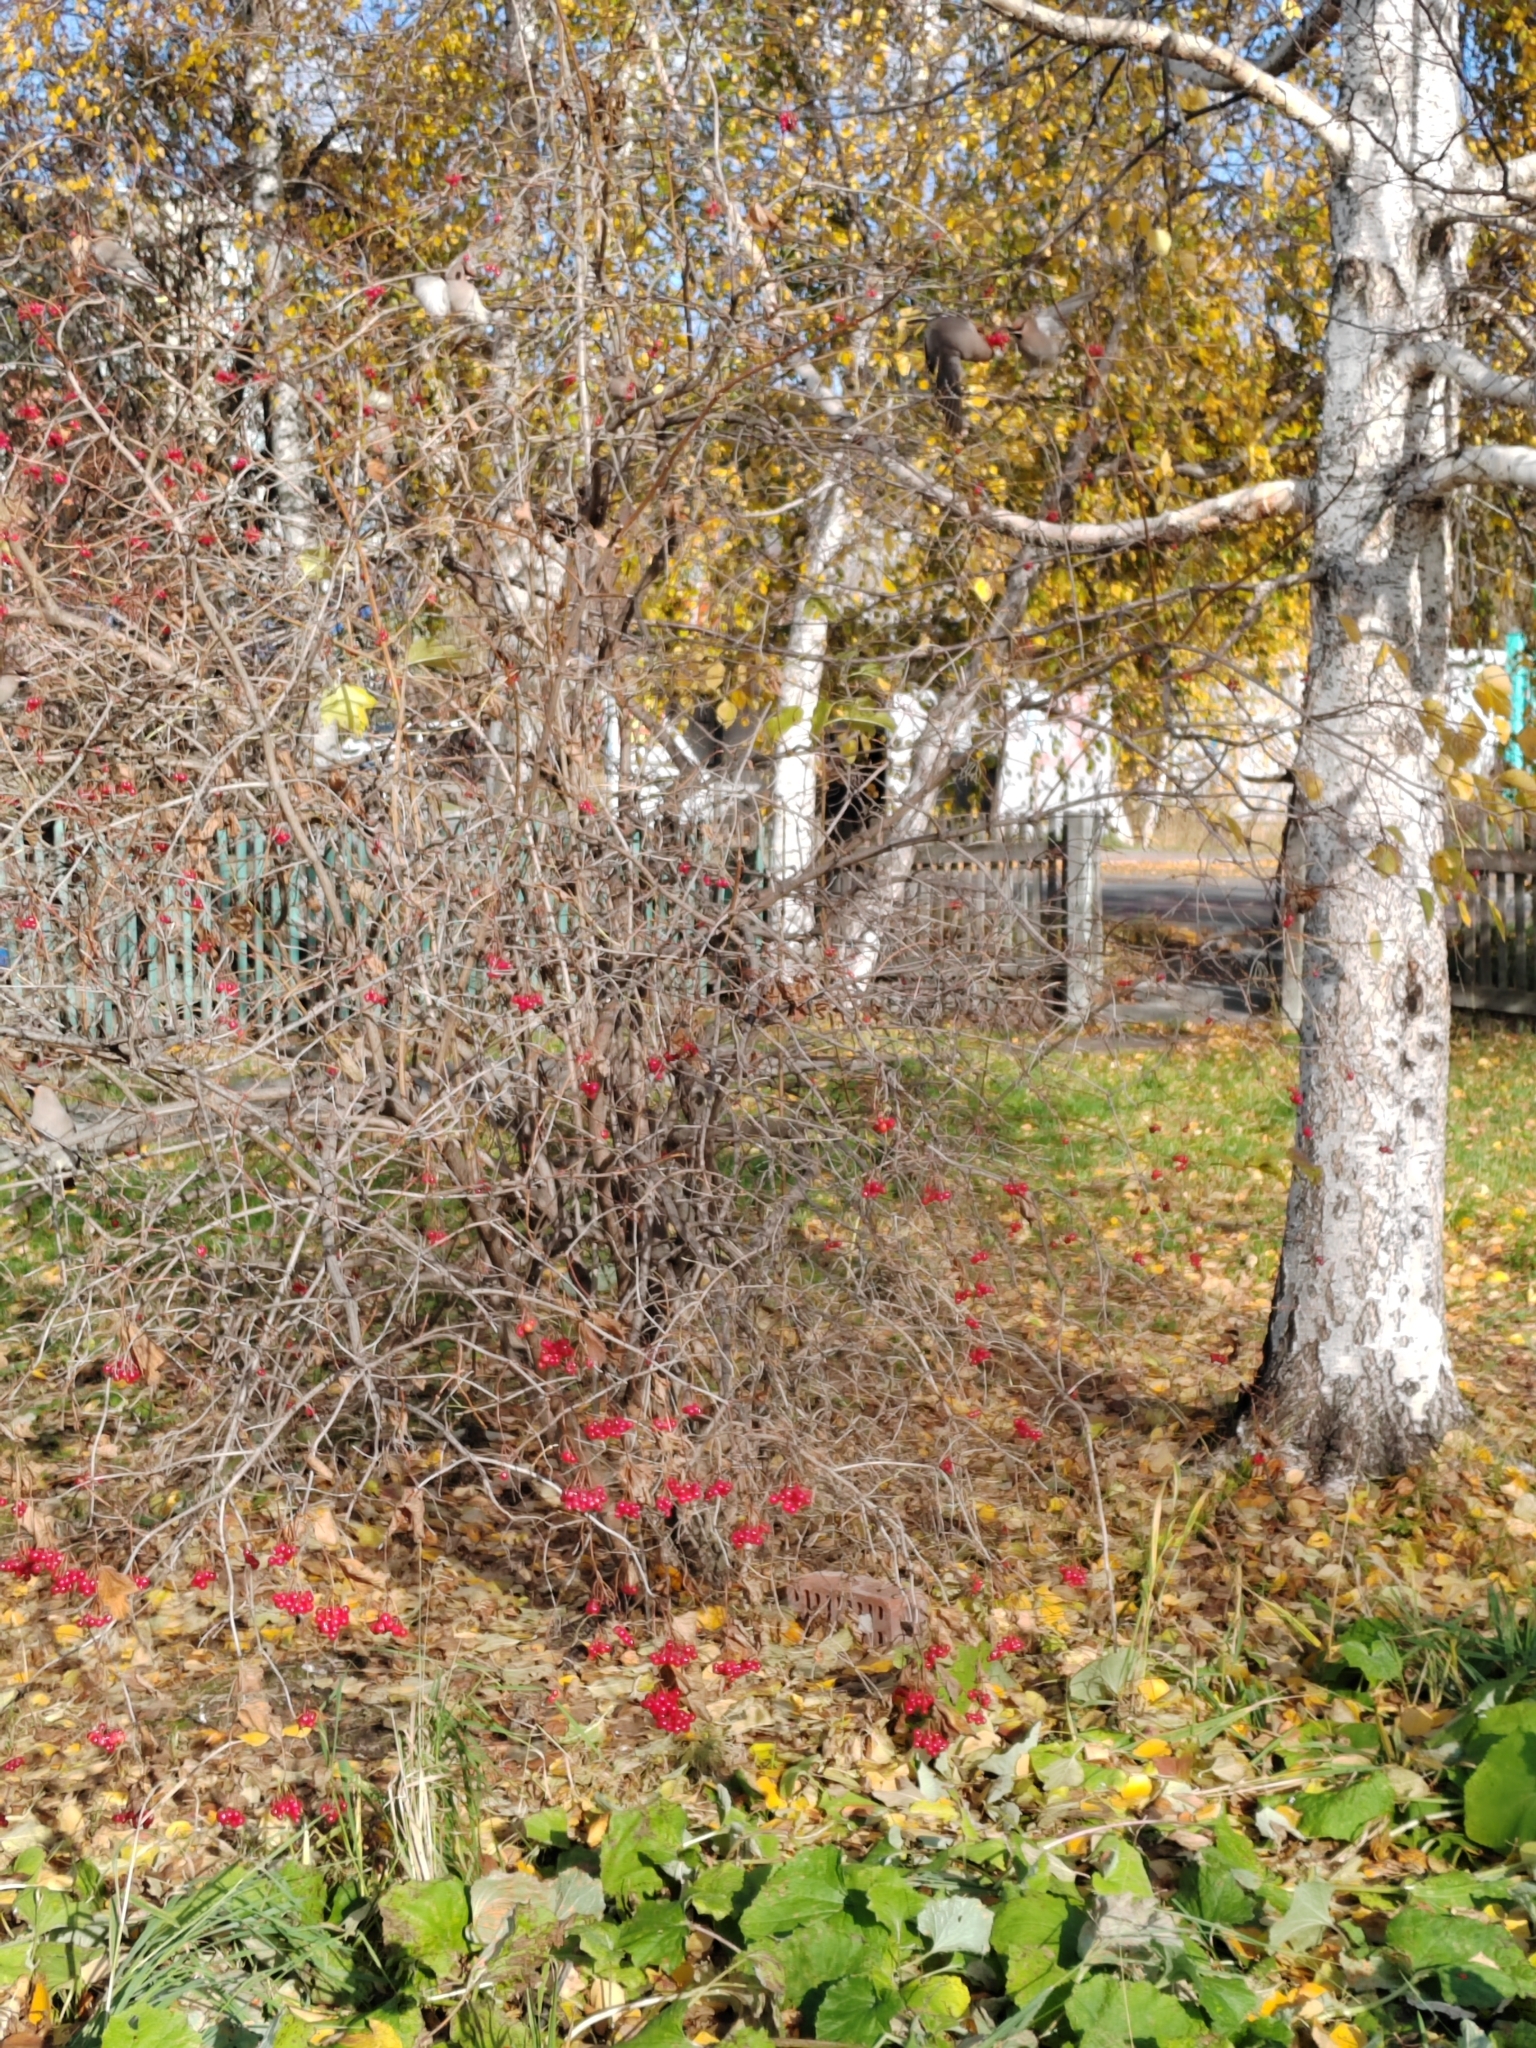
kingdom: Plantae
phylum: Tracheophyta
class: Magnoliopsida
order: Dipsacales
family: Viburnaceae
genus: Viburnum
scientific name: Viburnum opulus
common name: Guelder-rose
